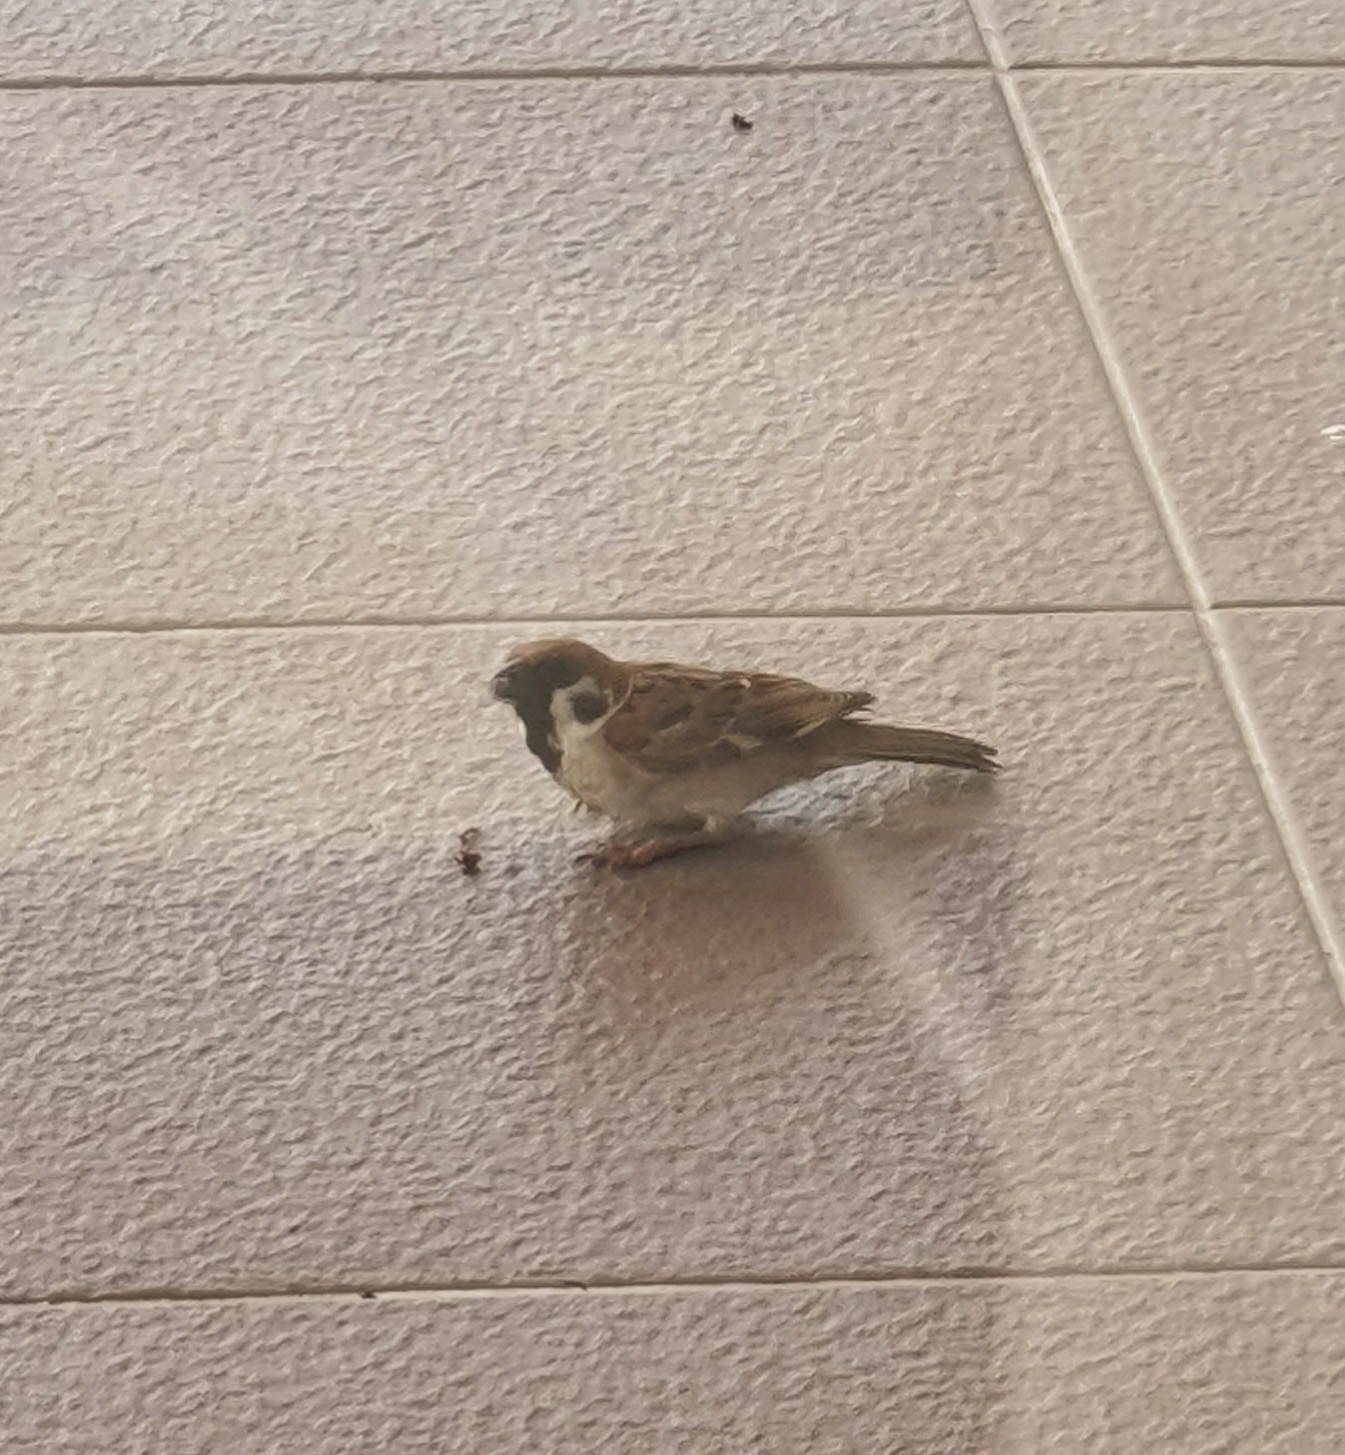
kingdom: Animalia
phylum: Chordata
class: Aves
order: Passeriformes
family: Passeridae
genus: Passer
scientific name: Passer montanus
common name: Eurasian tree sparrow
